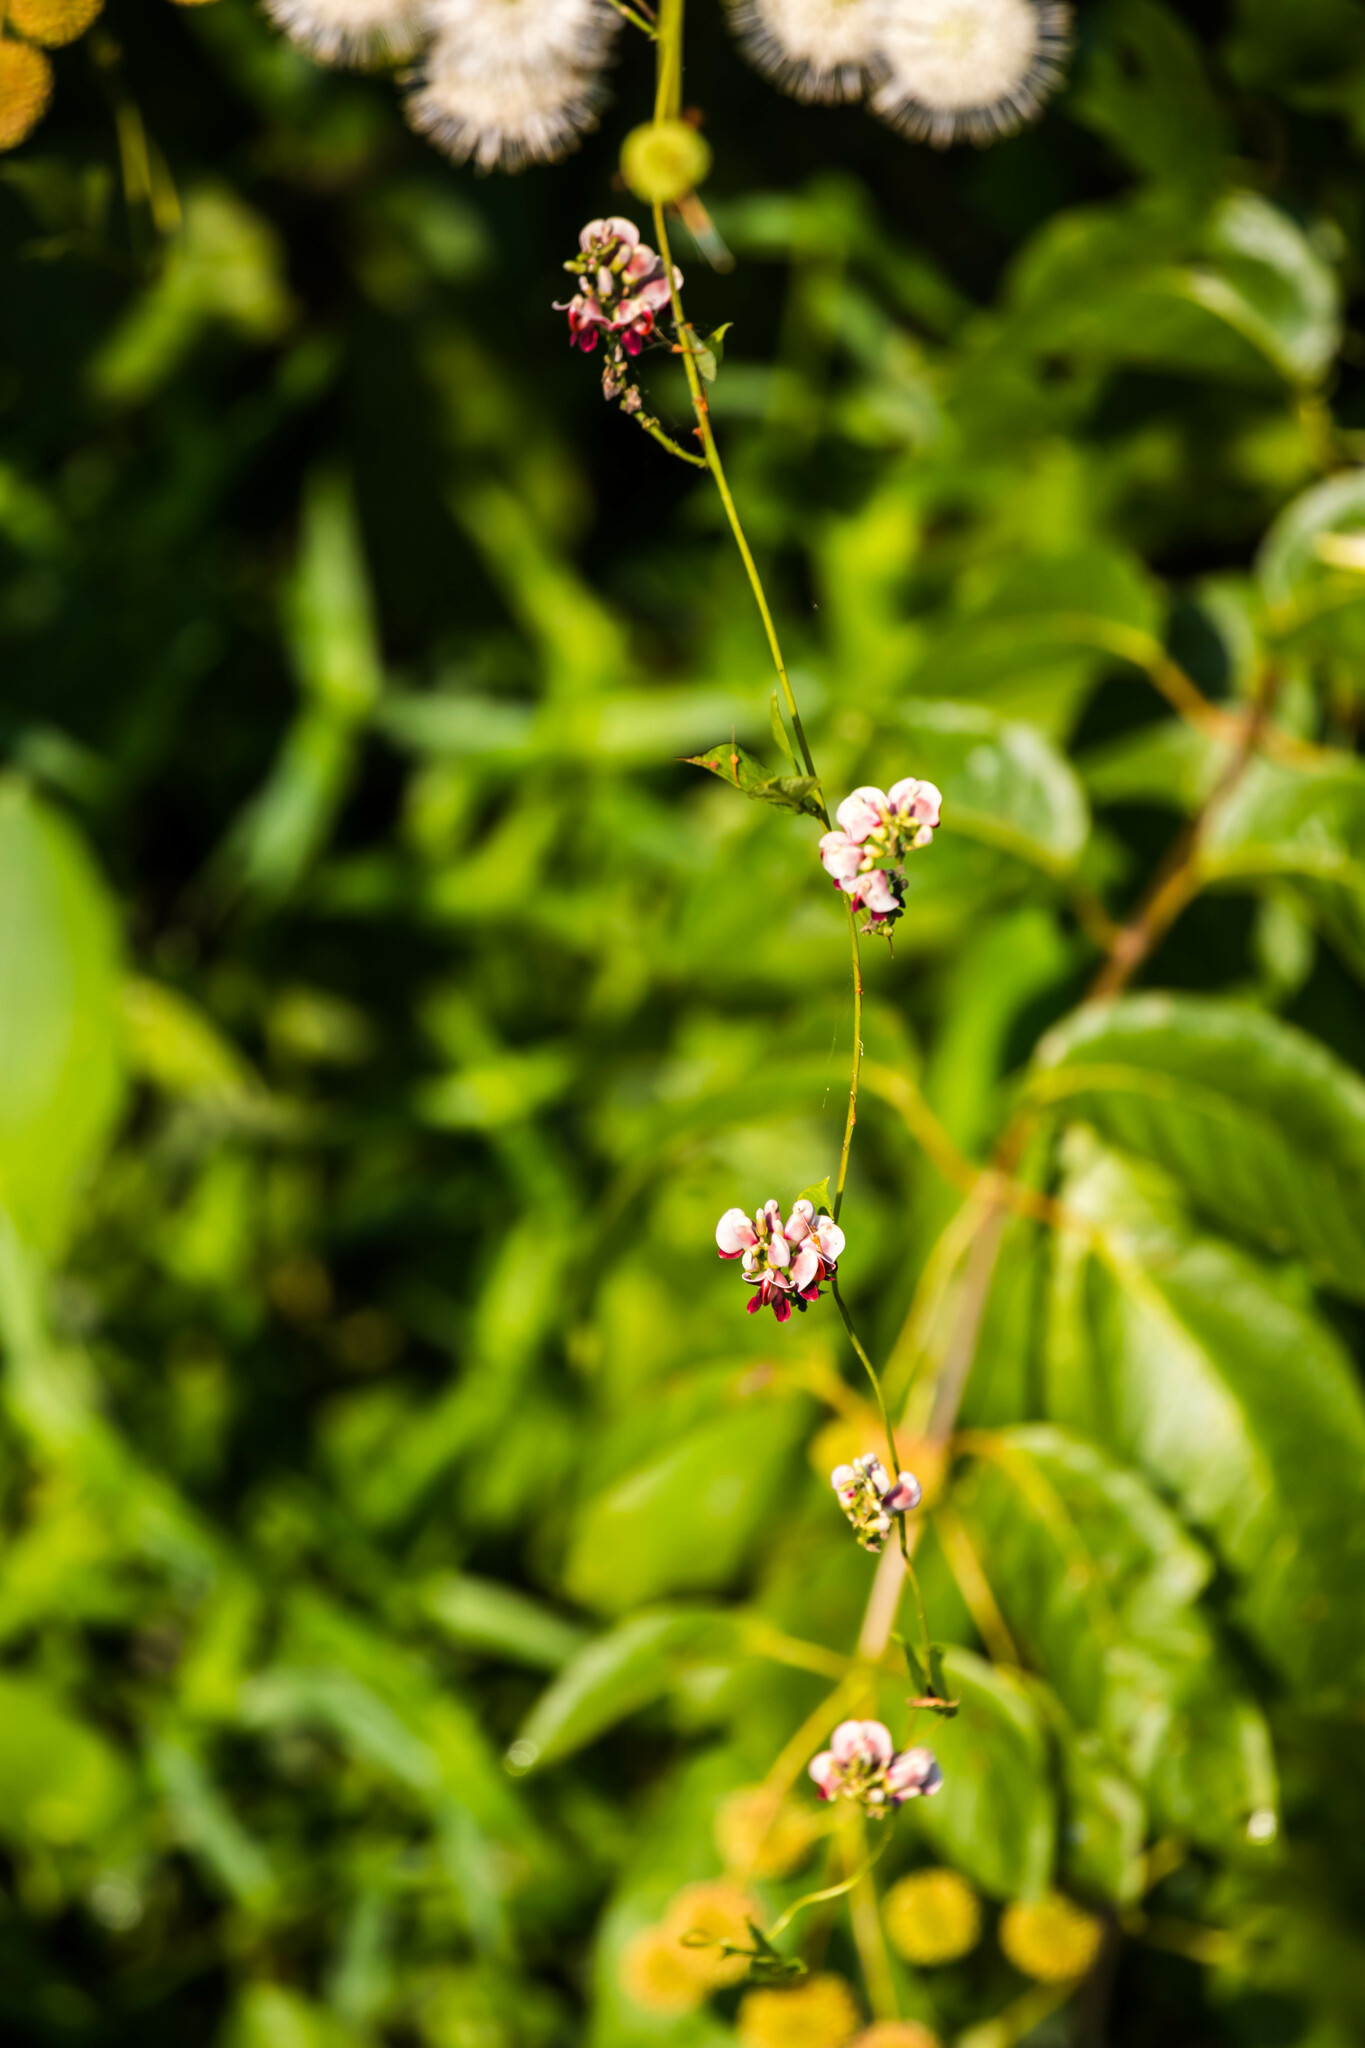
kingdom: Plantae
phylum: Tracheophyta
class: Magnoliopsida
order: Fabales
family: Fabaceae
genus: Apios
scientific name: Apios americana
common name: American potato-bean
